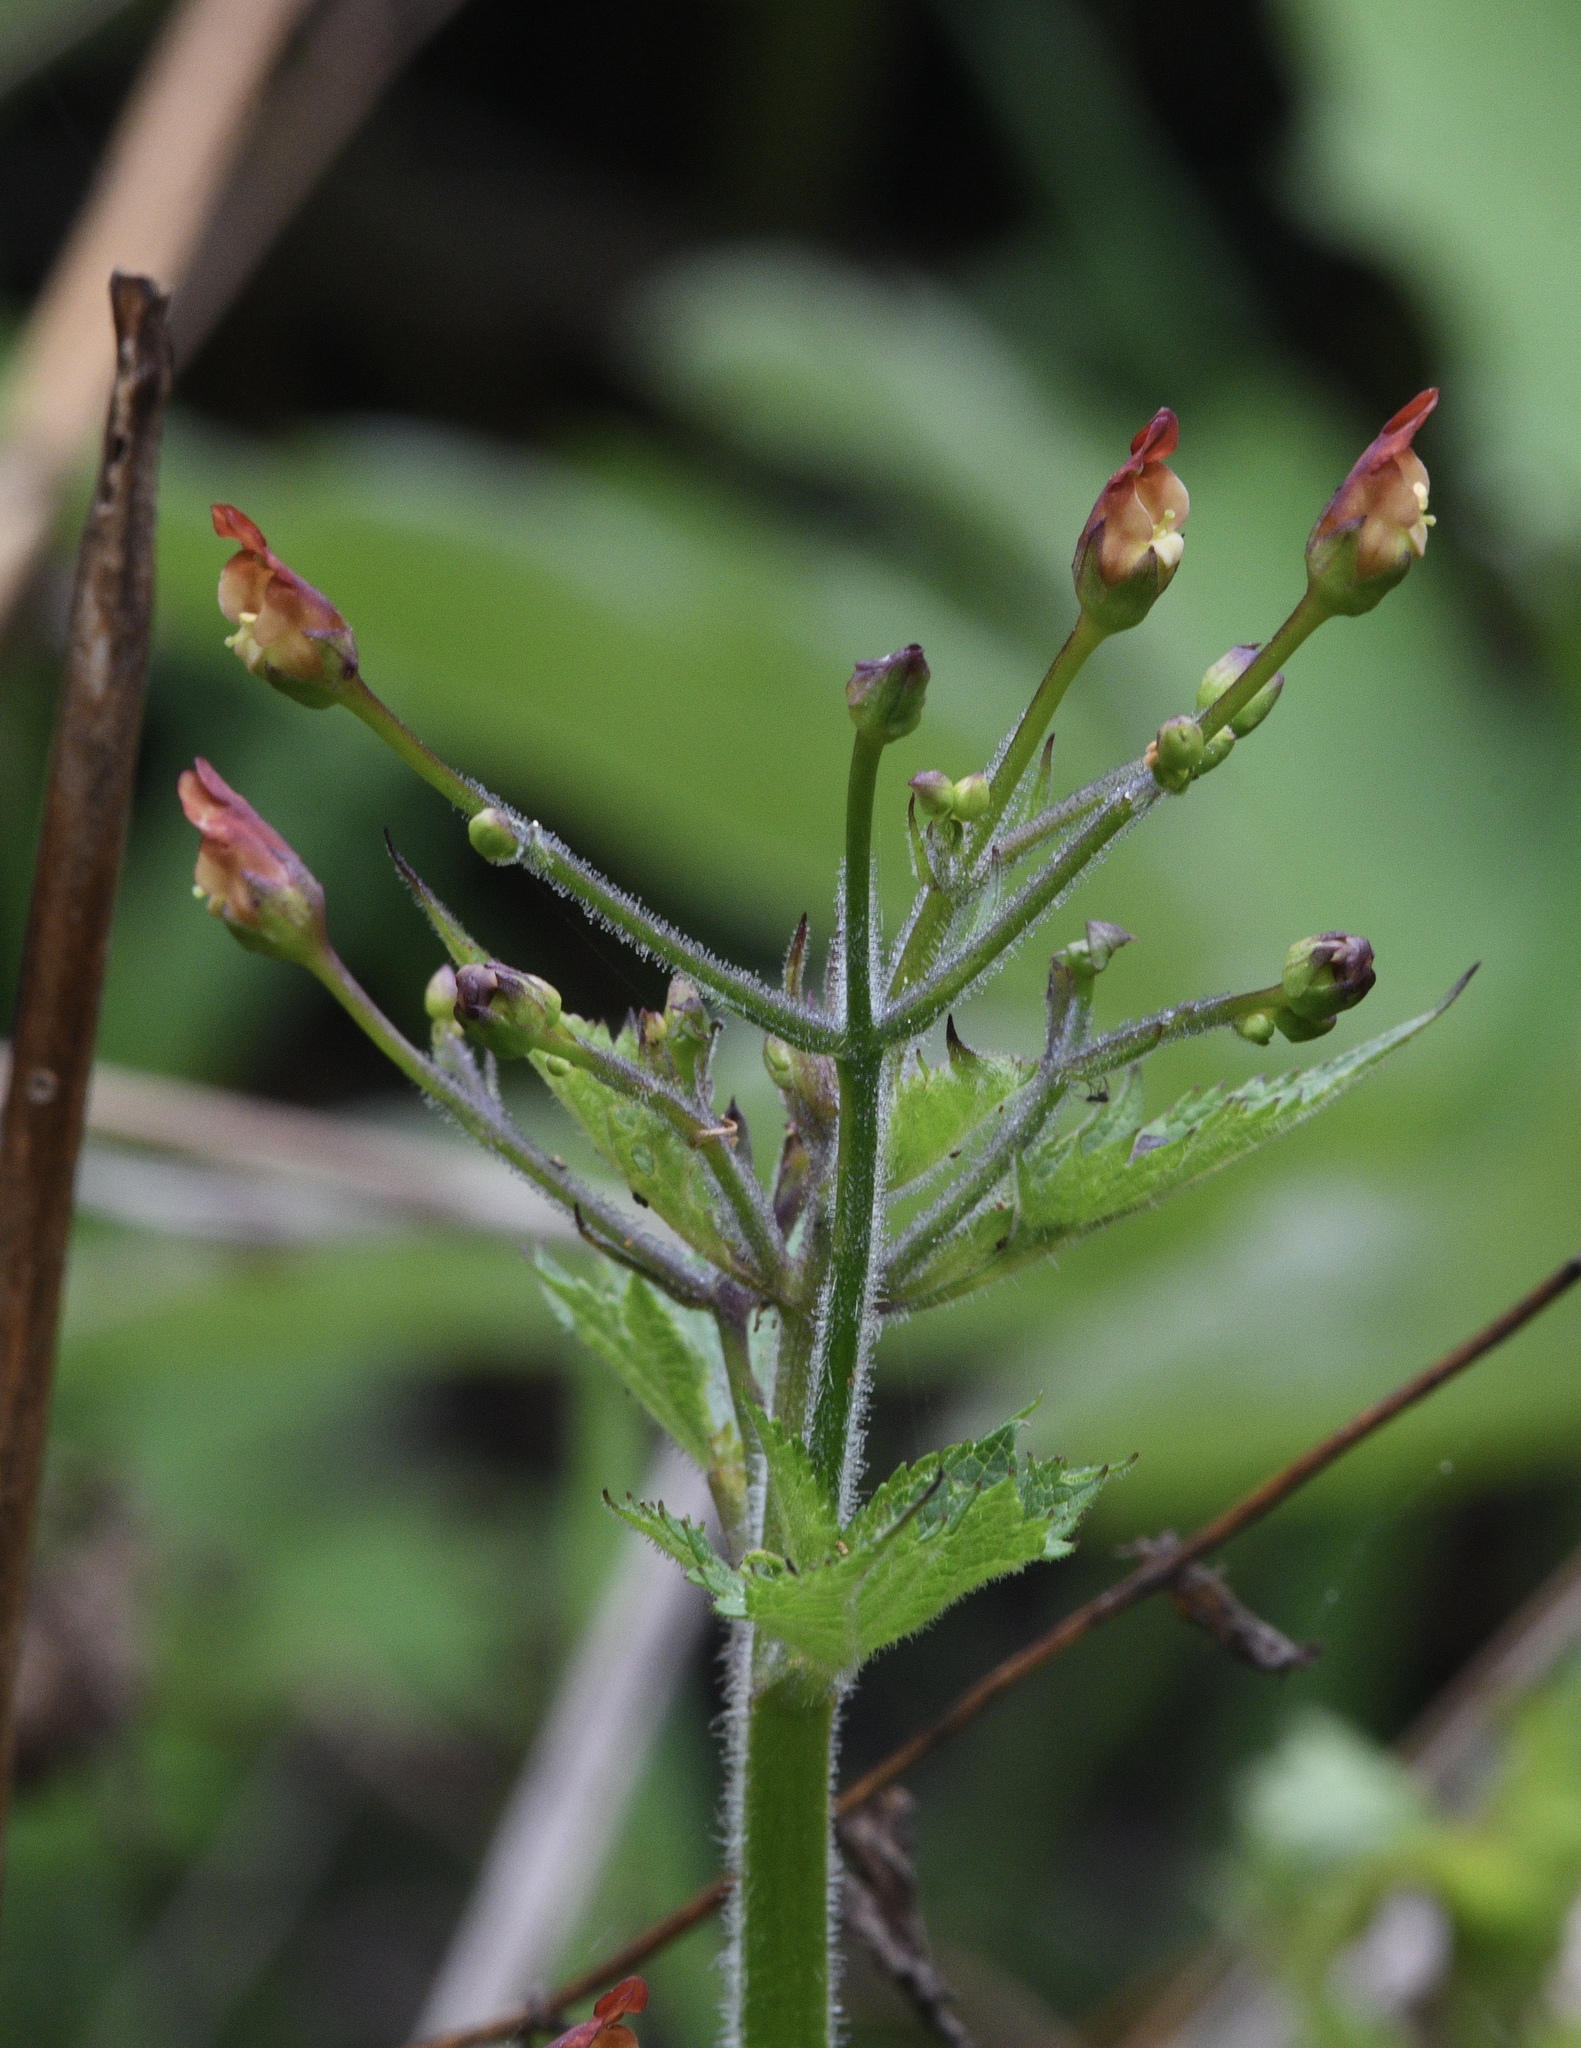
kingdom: Plantae
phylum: Tracheophyta
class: Magnoliopsida
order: Lamiales
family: Scrophulariaceae
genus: Scrophularia
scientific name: Scrophularia californica
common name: California figwort
